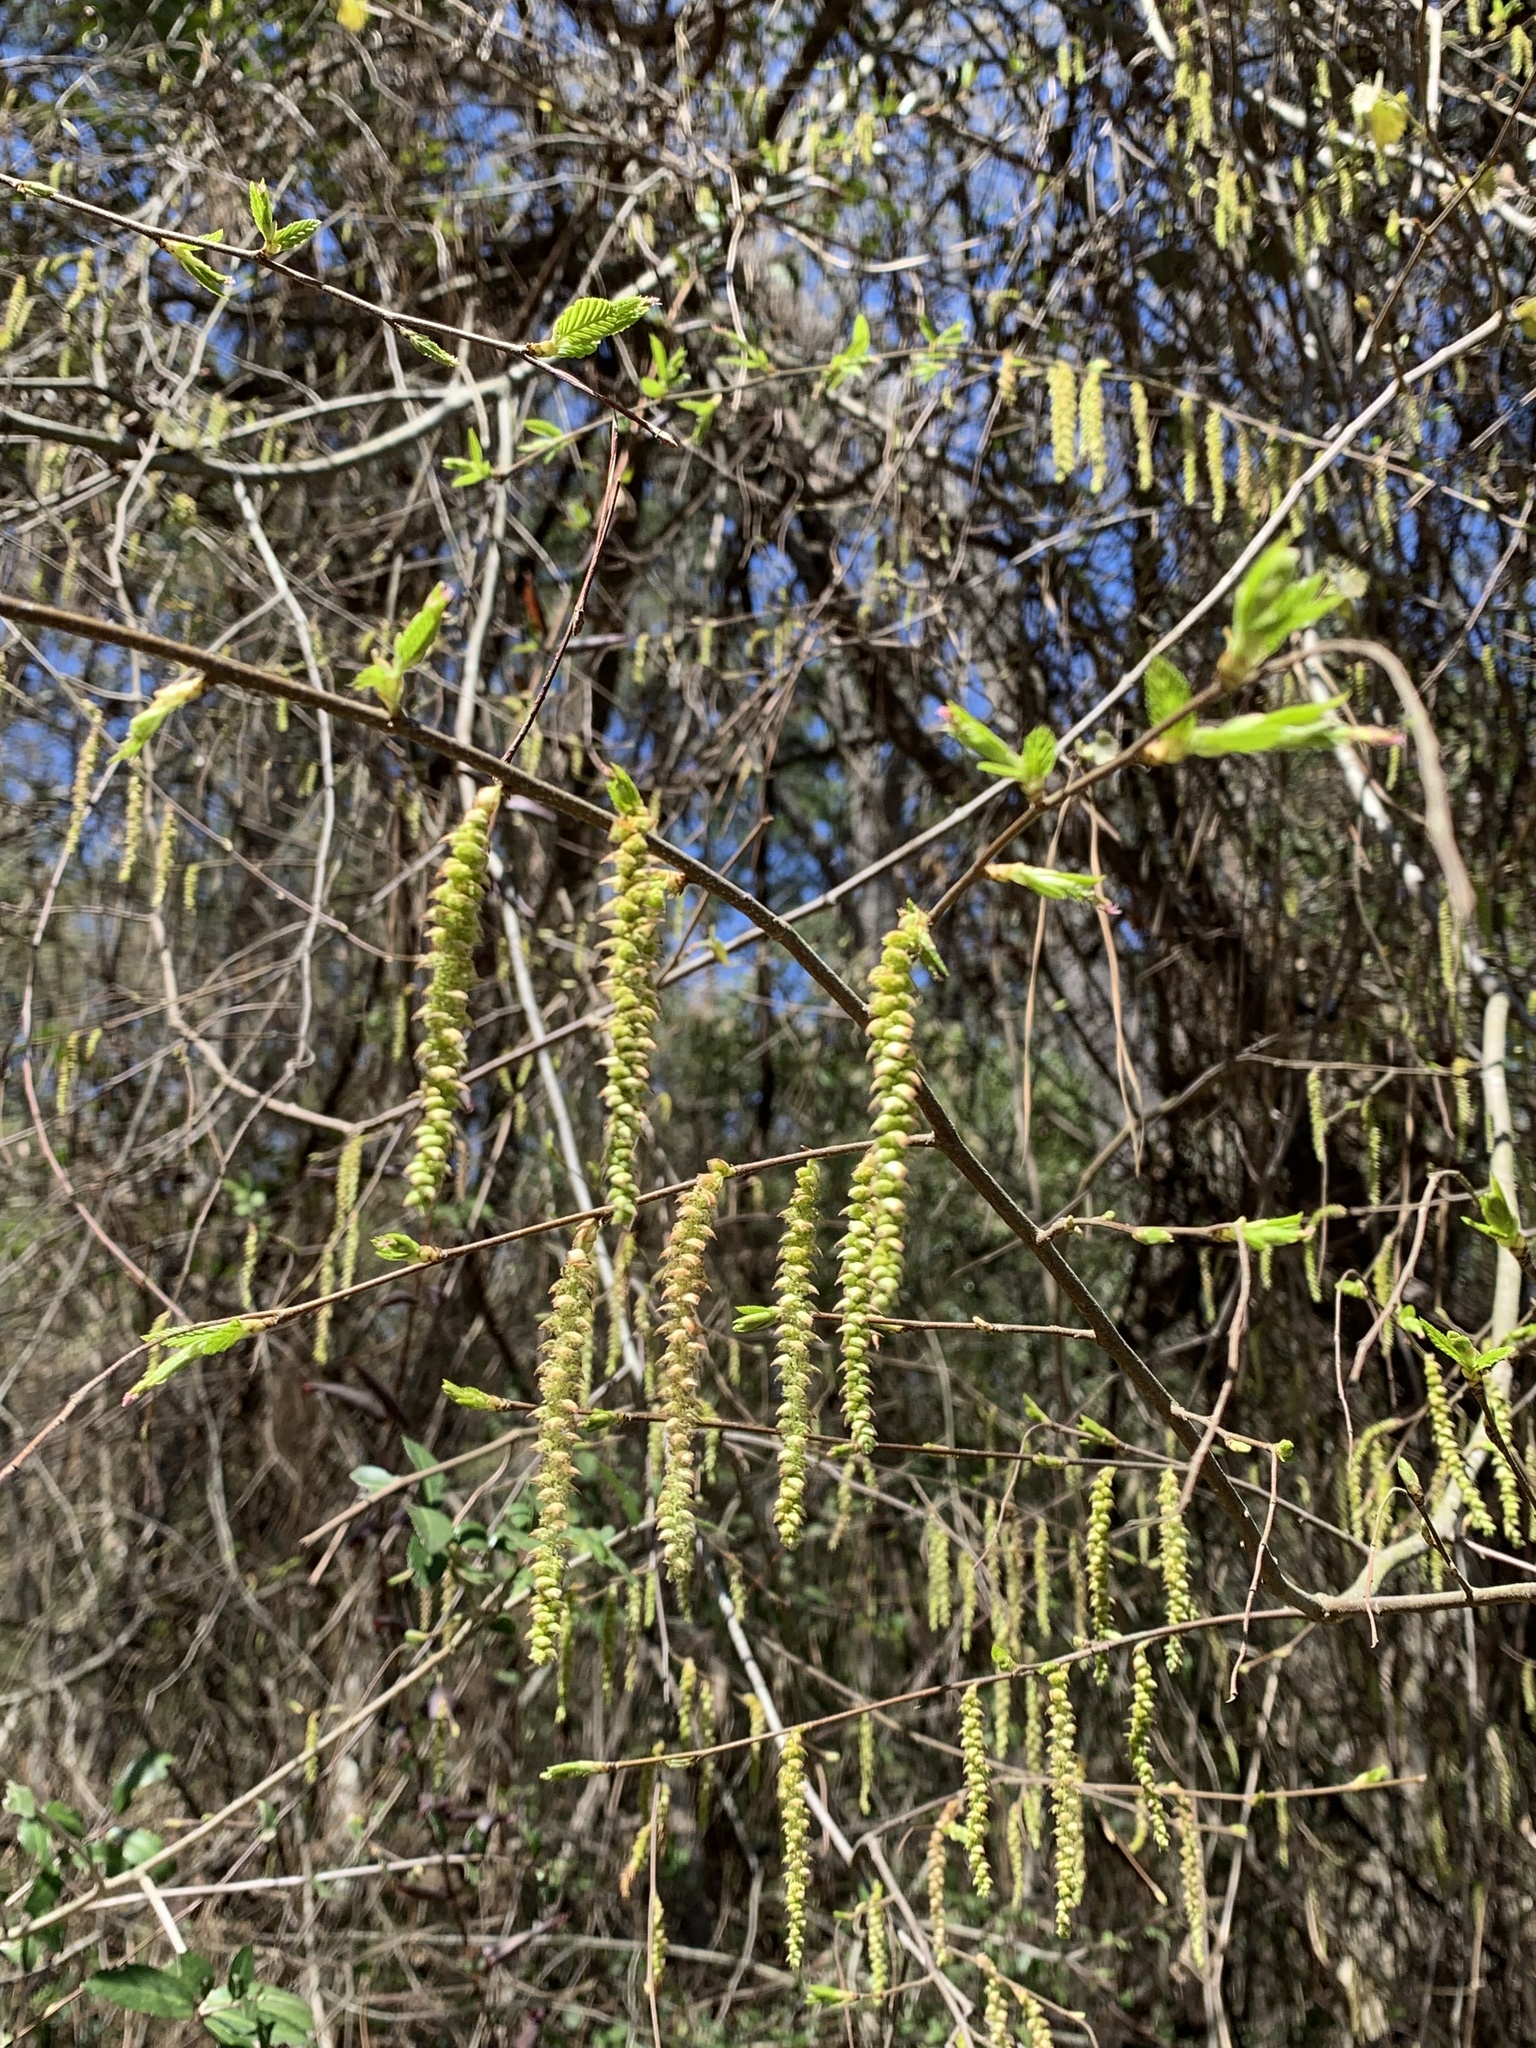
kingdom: Plantae
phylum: Tracheophyta
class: Magnoliopsida
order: Fagales
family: Betulaceae
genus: Carpinus
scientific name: Carpinus caroliniana
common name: American hornbeam
